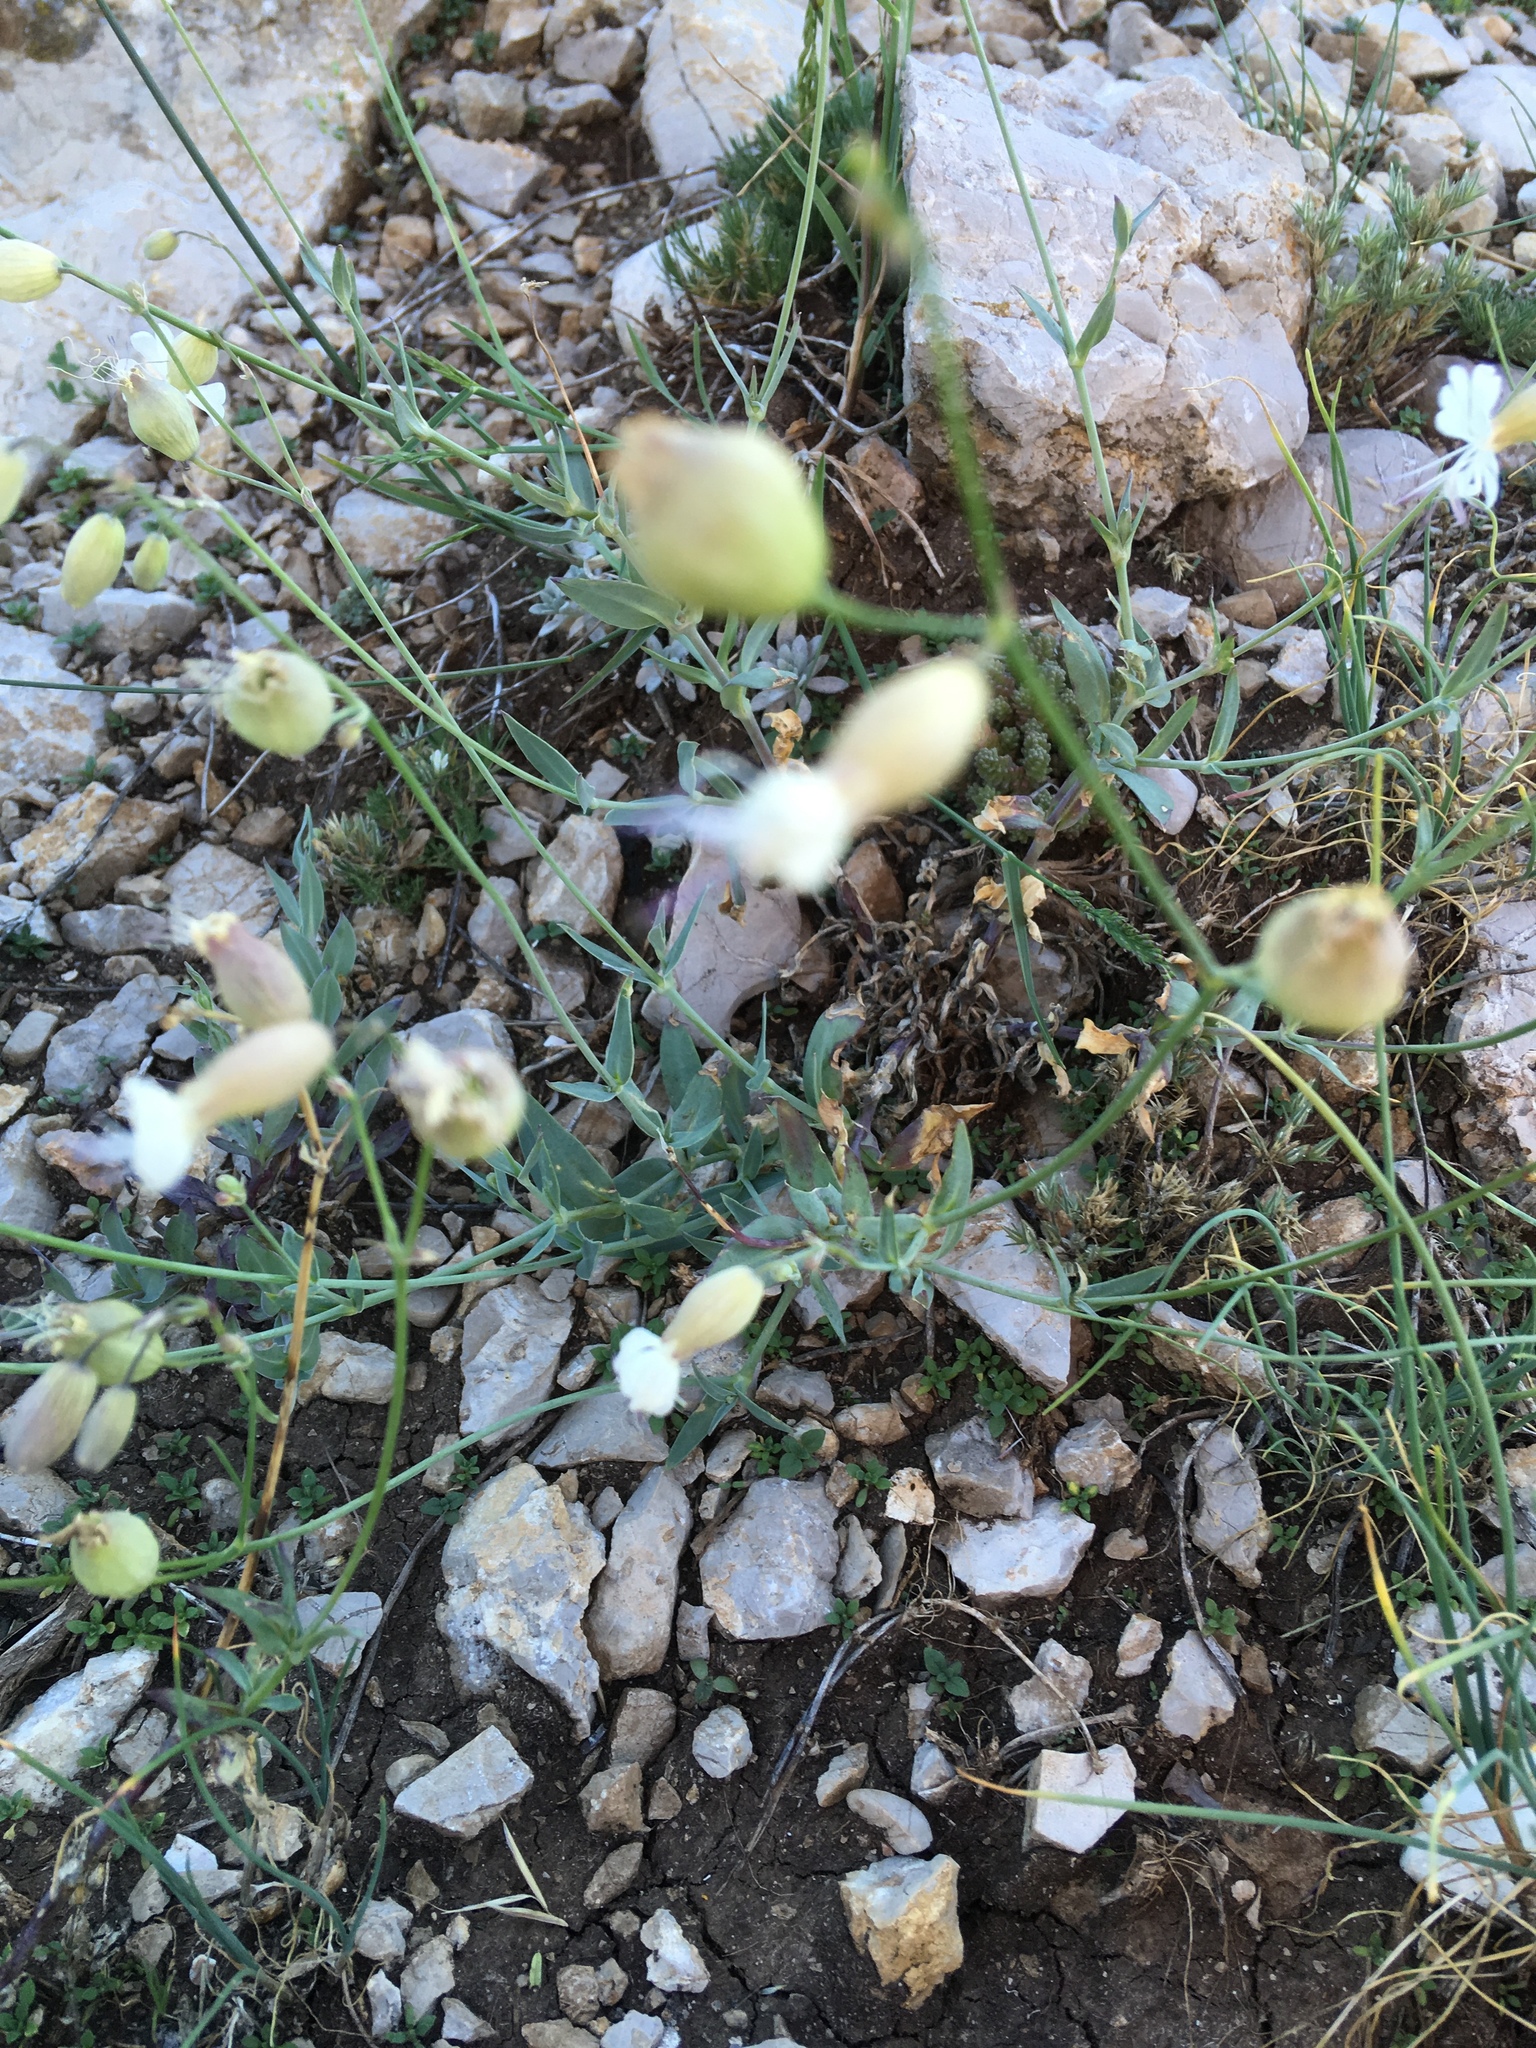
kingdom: Plantae
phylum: Tracheophyta
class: Magnoliopsida
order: Caryophyllales
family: Caryophyllaceae
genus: Silene
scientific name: Silene vulgaris
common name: Bladder campion
